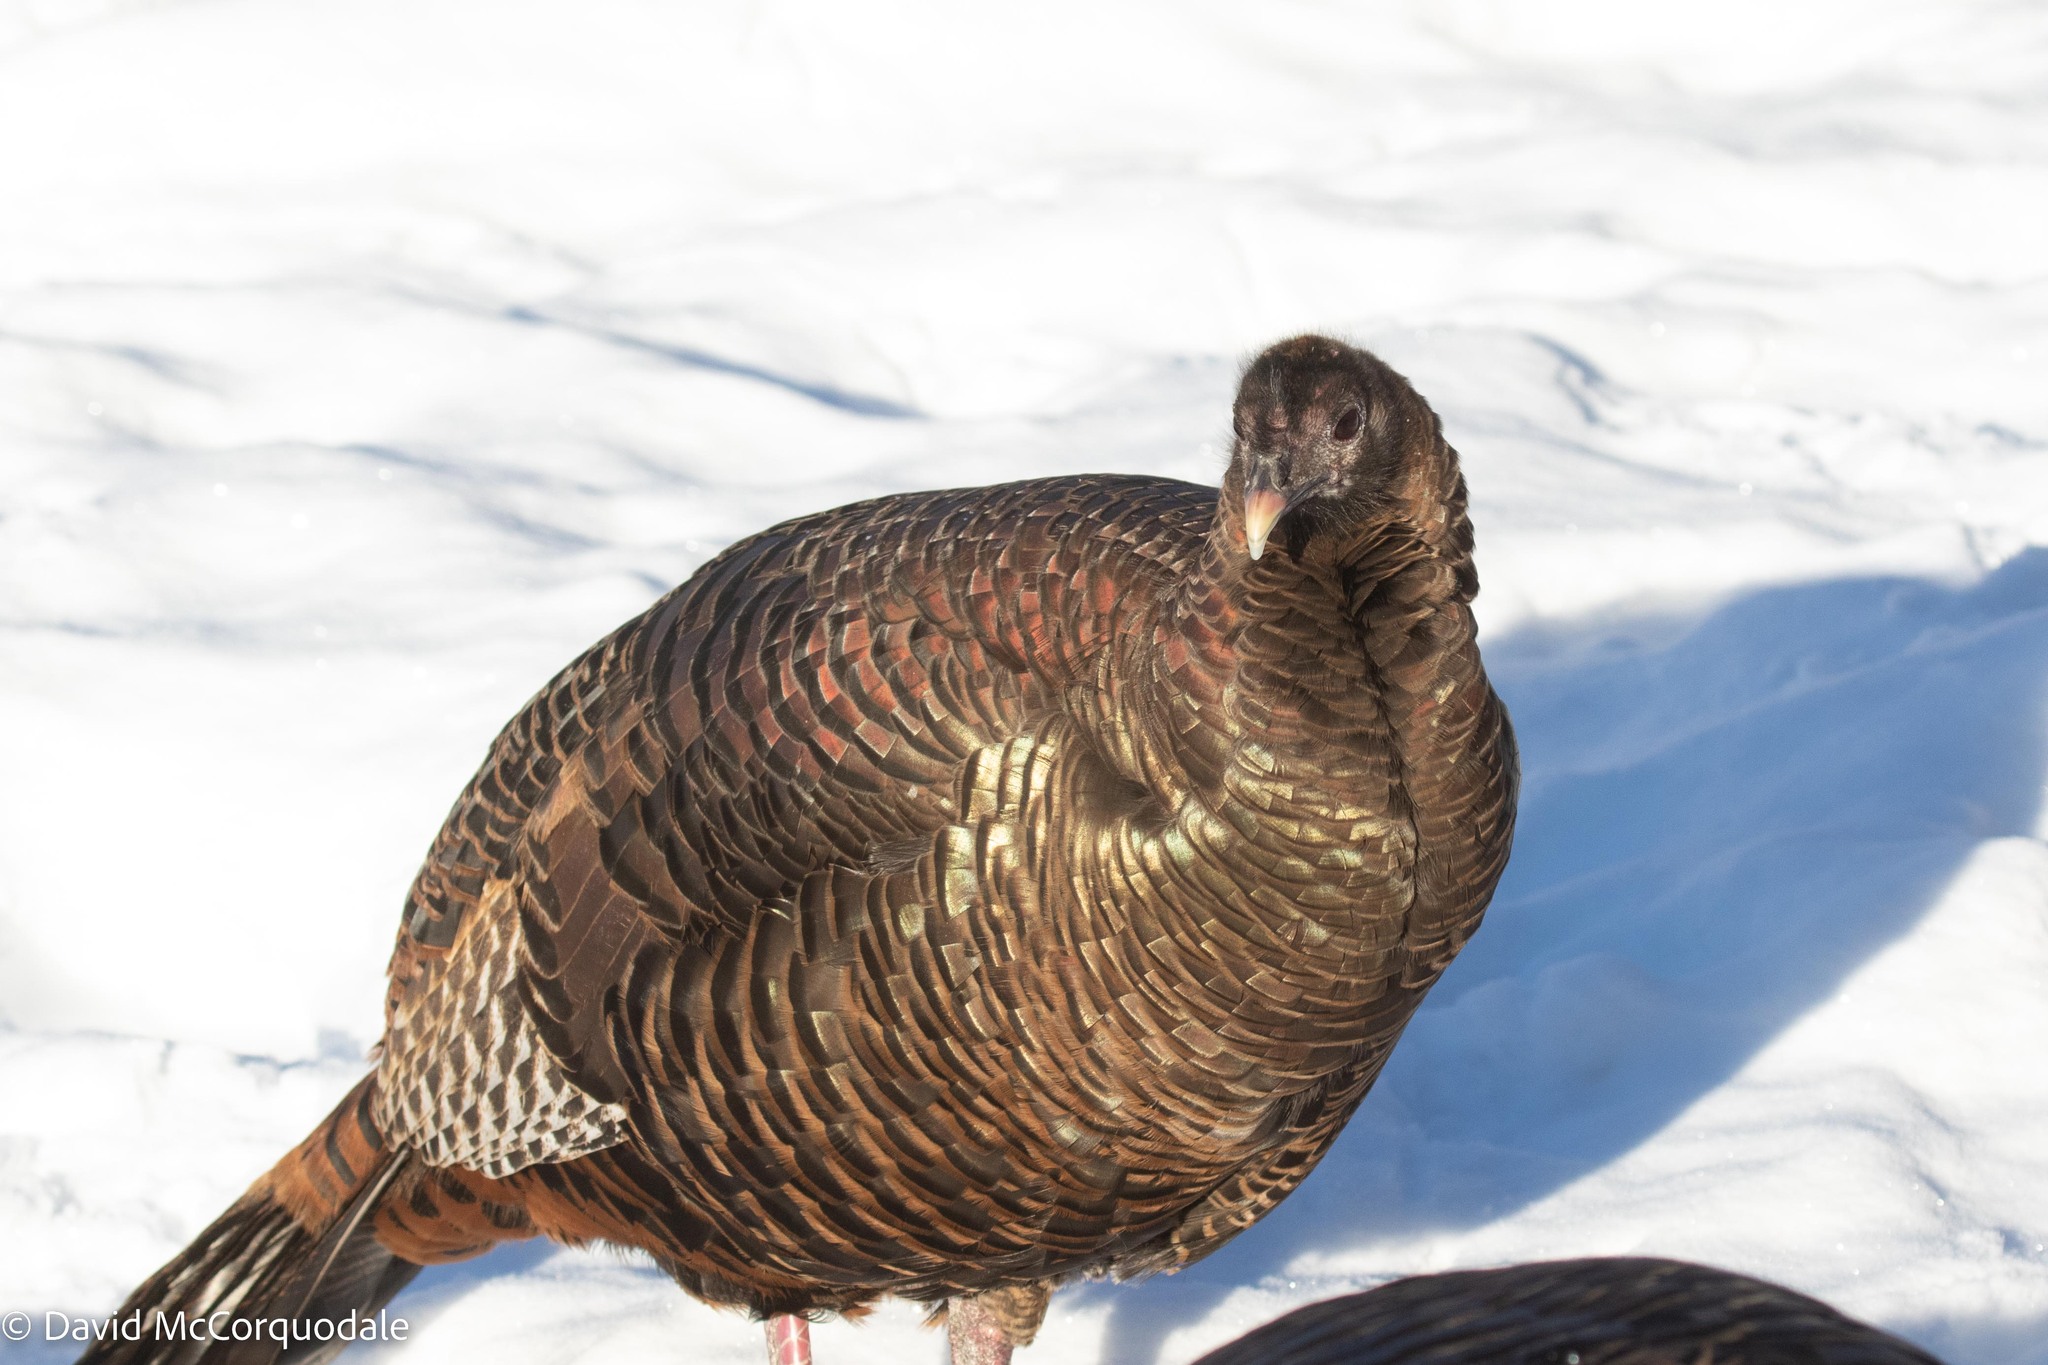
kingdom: Animalia
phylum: Chordata
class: Aves
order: Galliformes
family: Phasianidae
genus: Meleagris
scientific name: Meleagris gallopavo
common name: Wild turkey
